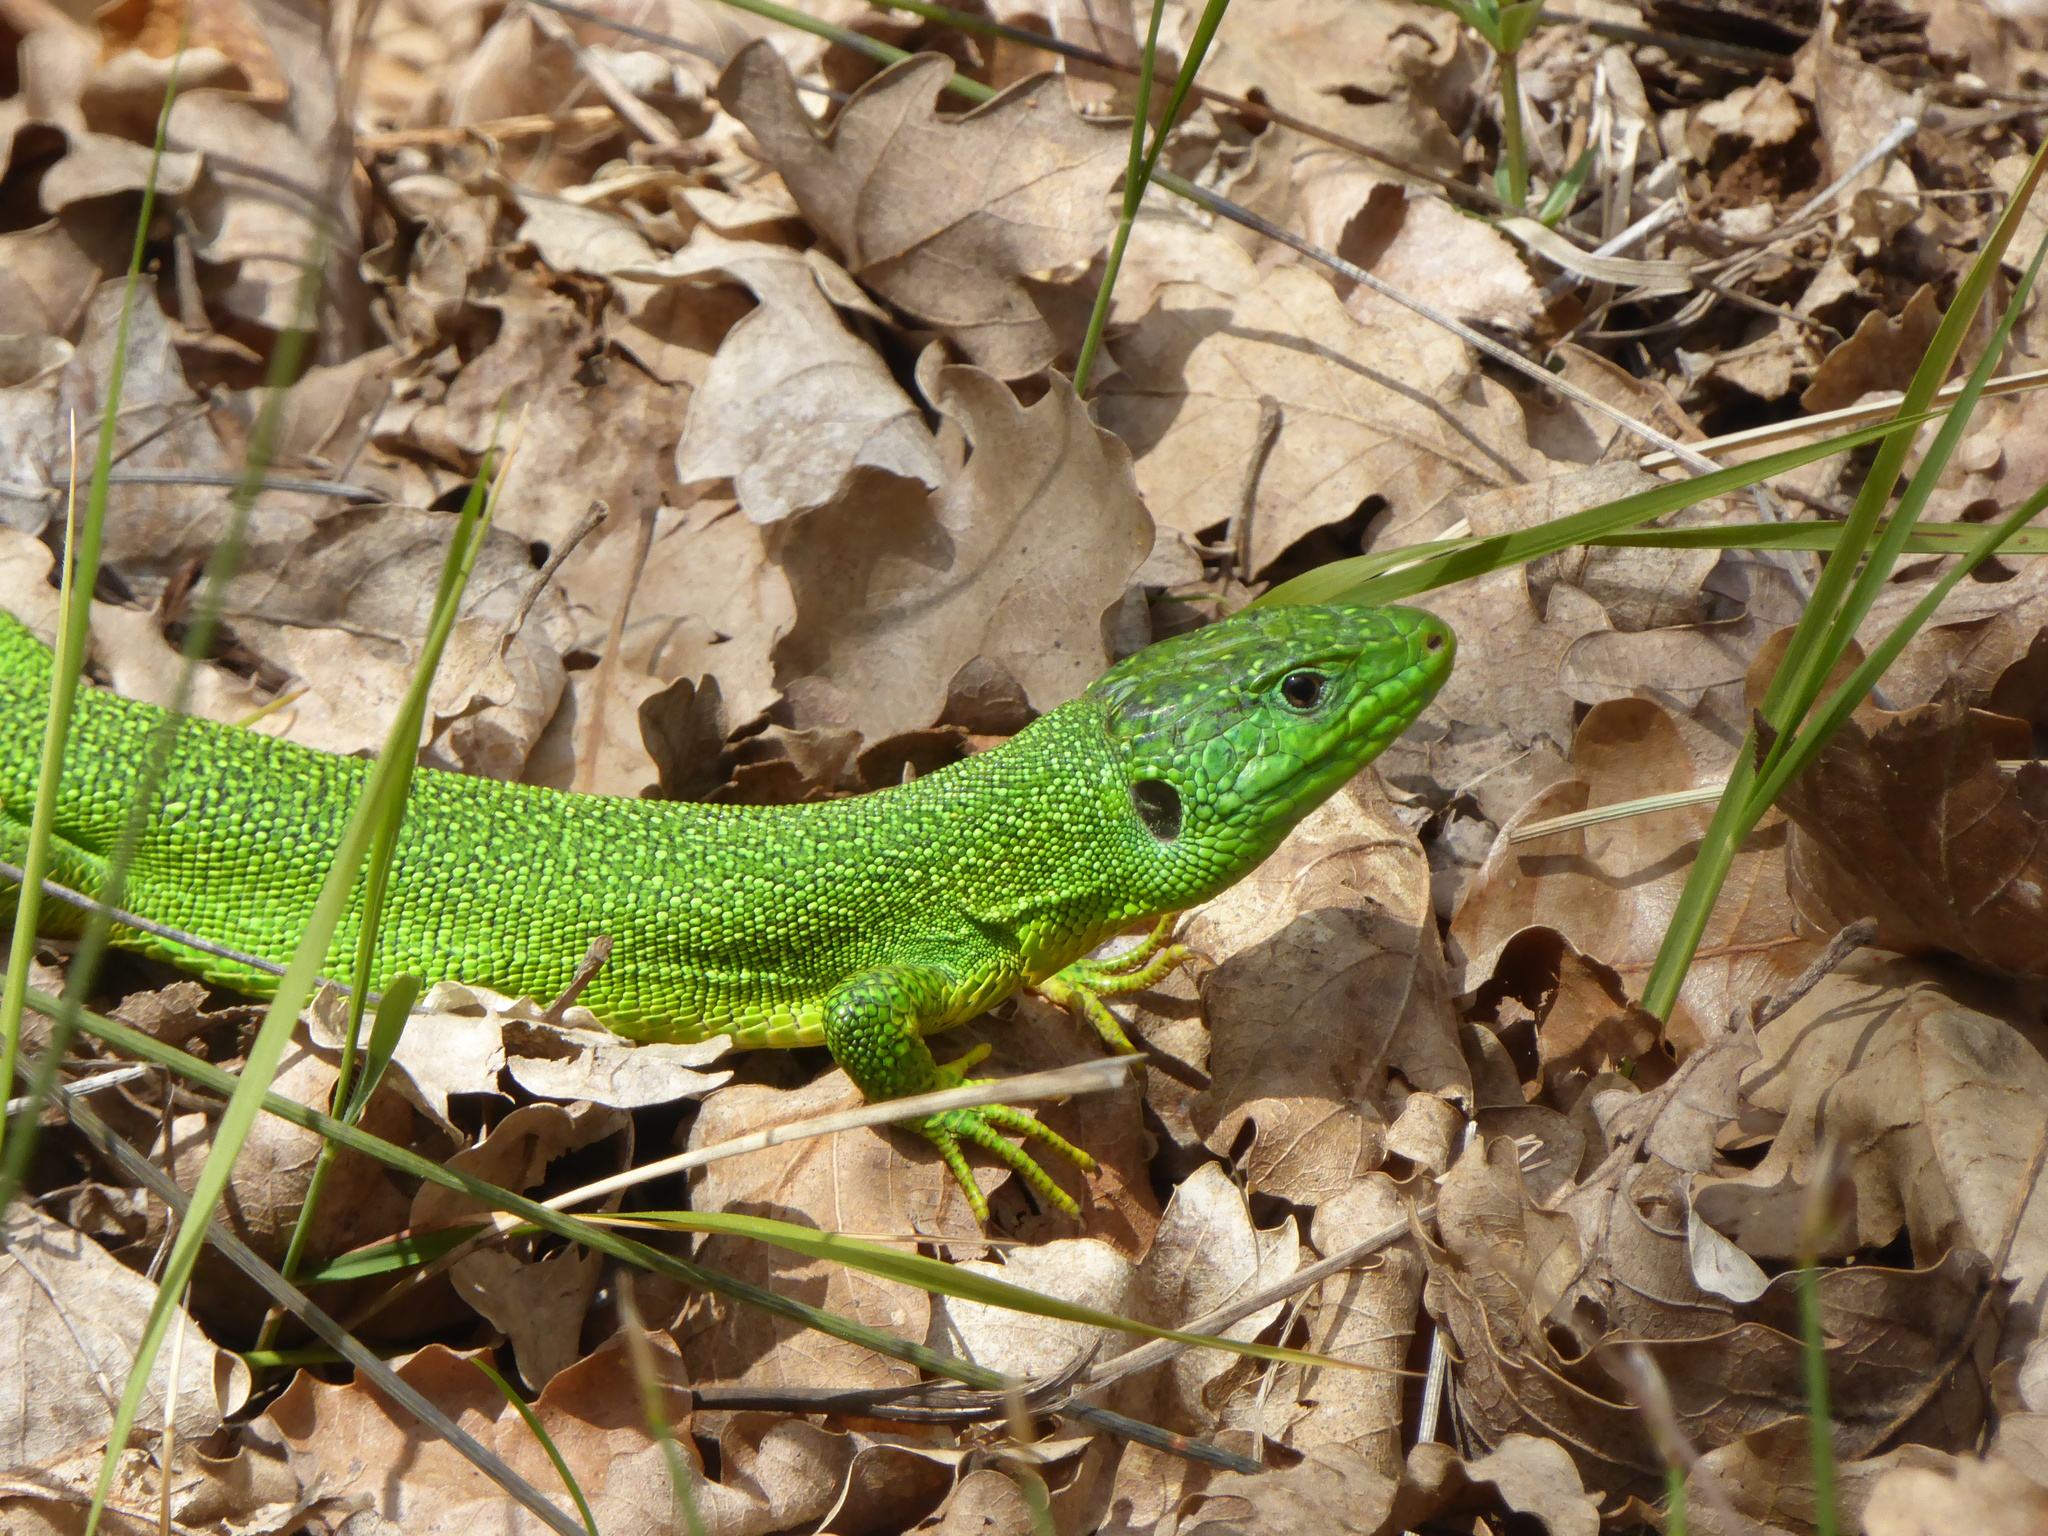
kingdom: Animalia
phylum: Chordata
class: Squamata
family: Lacertidae
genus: Lacerta
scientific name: Lacerta bilineata
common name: Western green lizard
